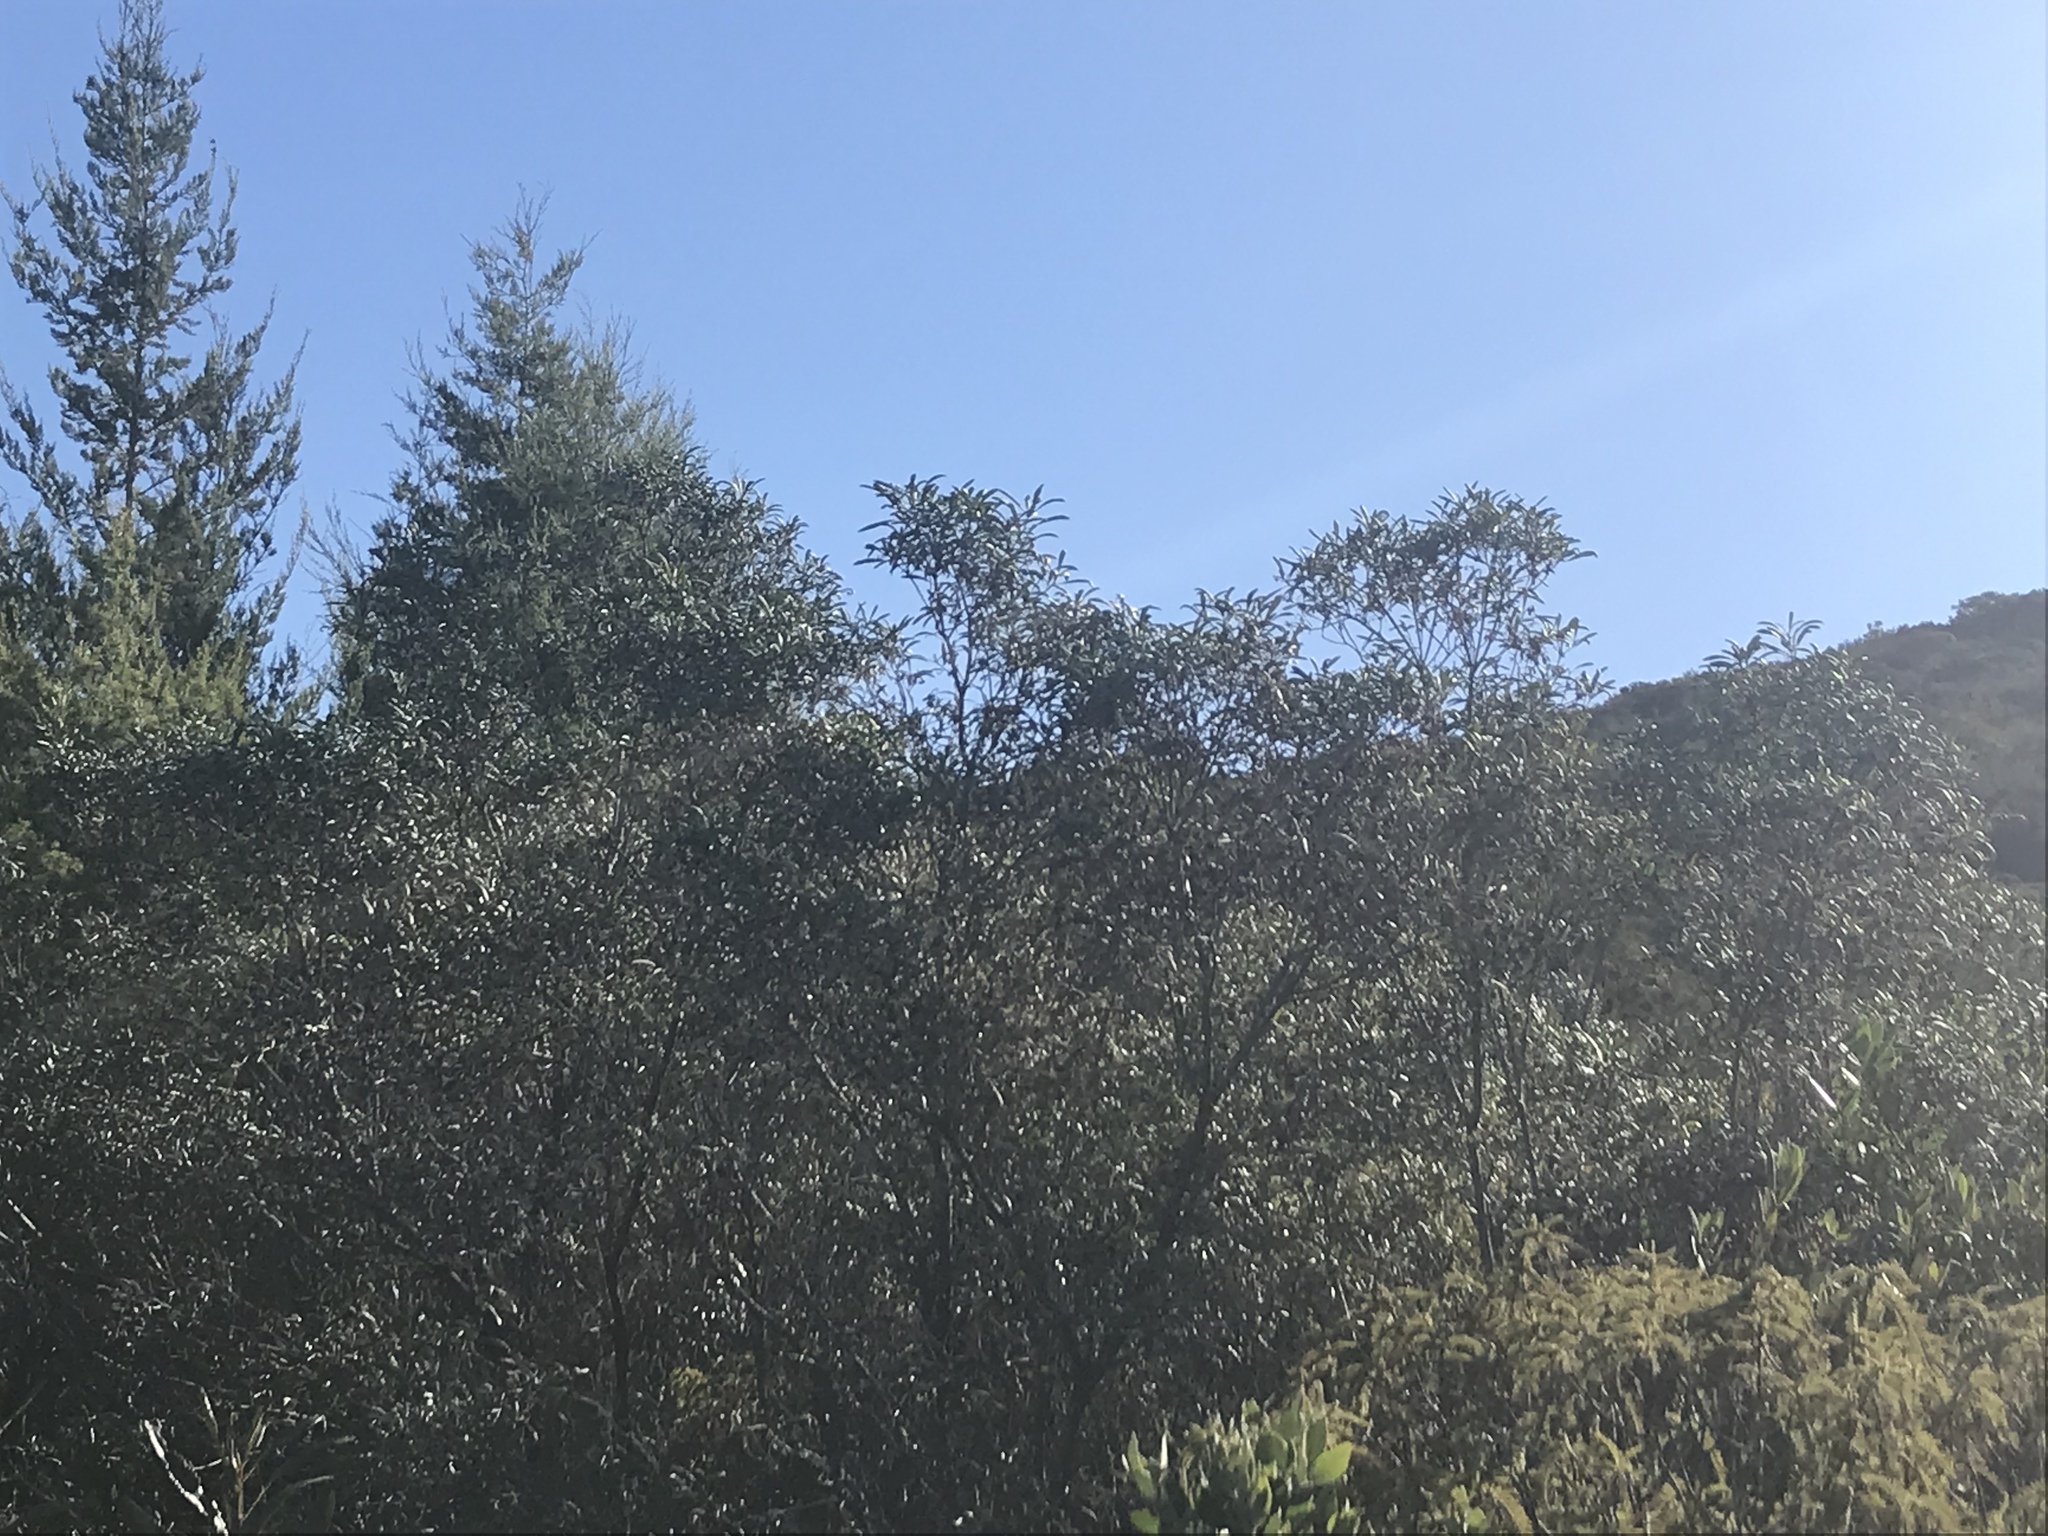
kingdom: Plantae
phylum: Tracheophyta
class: Pinopsida
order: Pinales
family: Cupressaceae
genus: Cupressus
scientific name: Cupressus guadalupensis
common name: Forbes cypress
